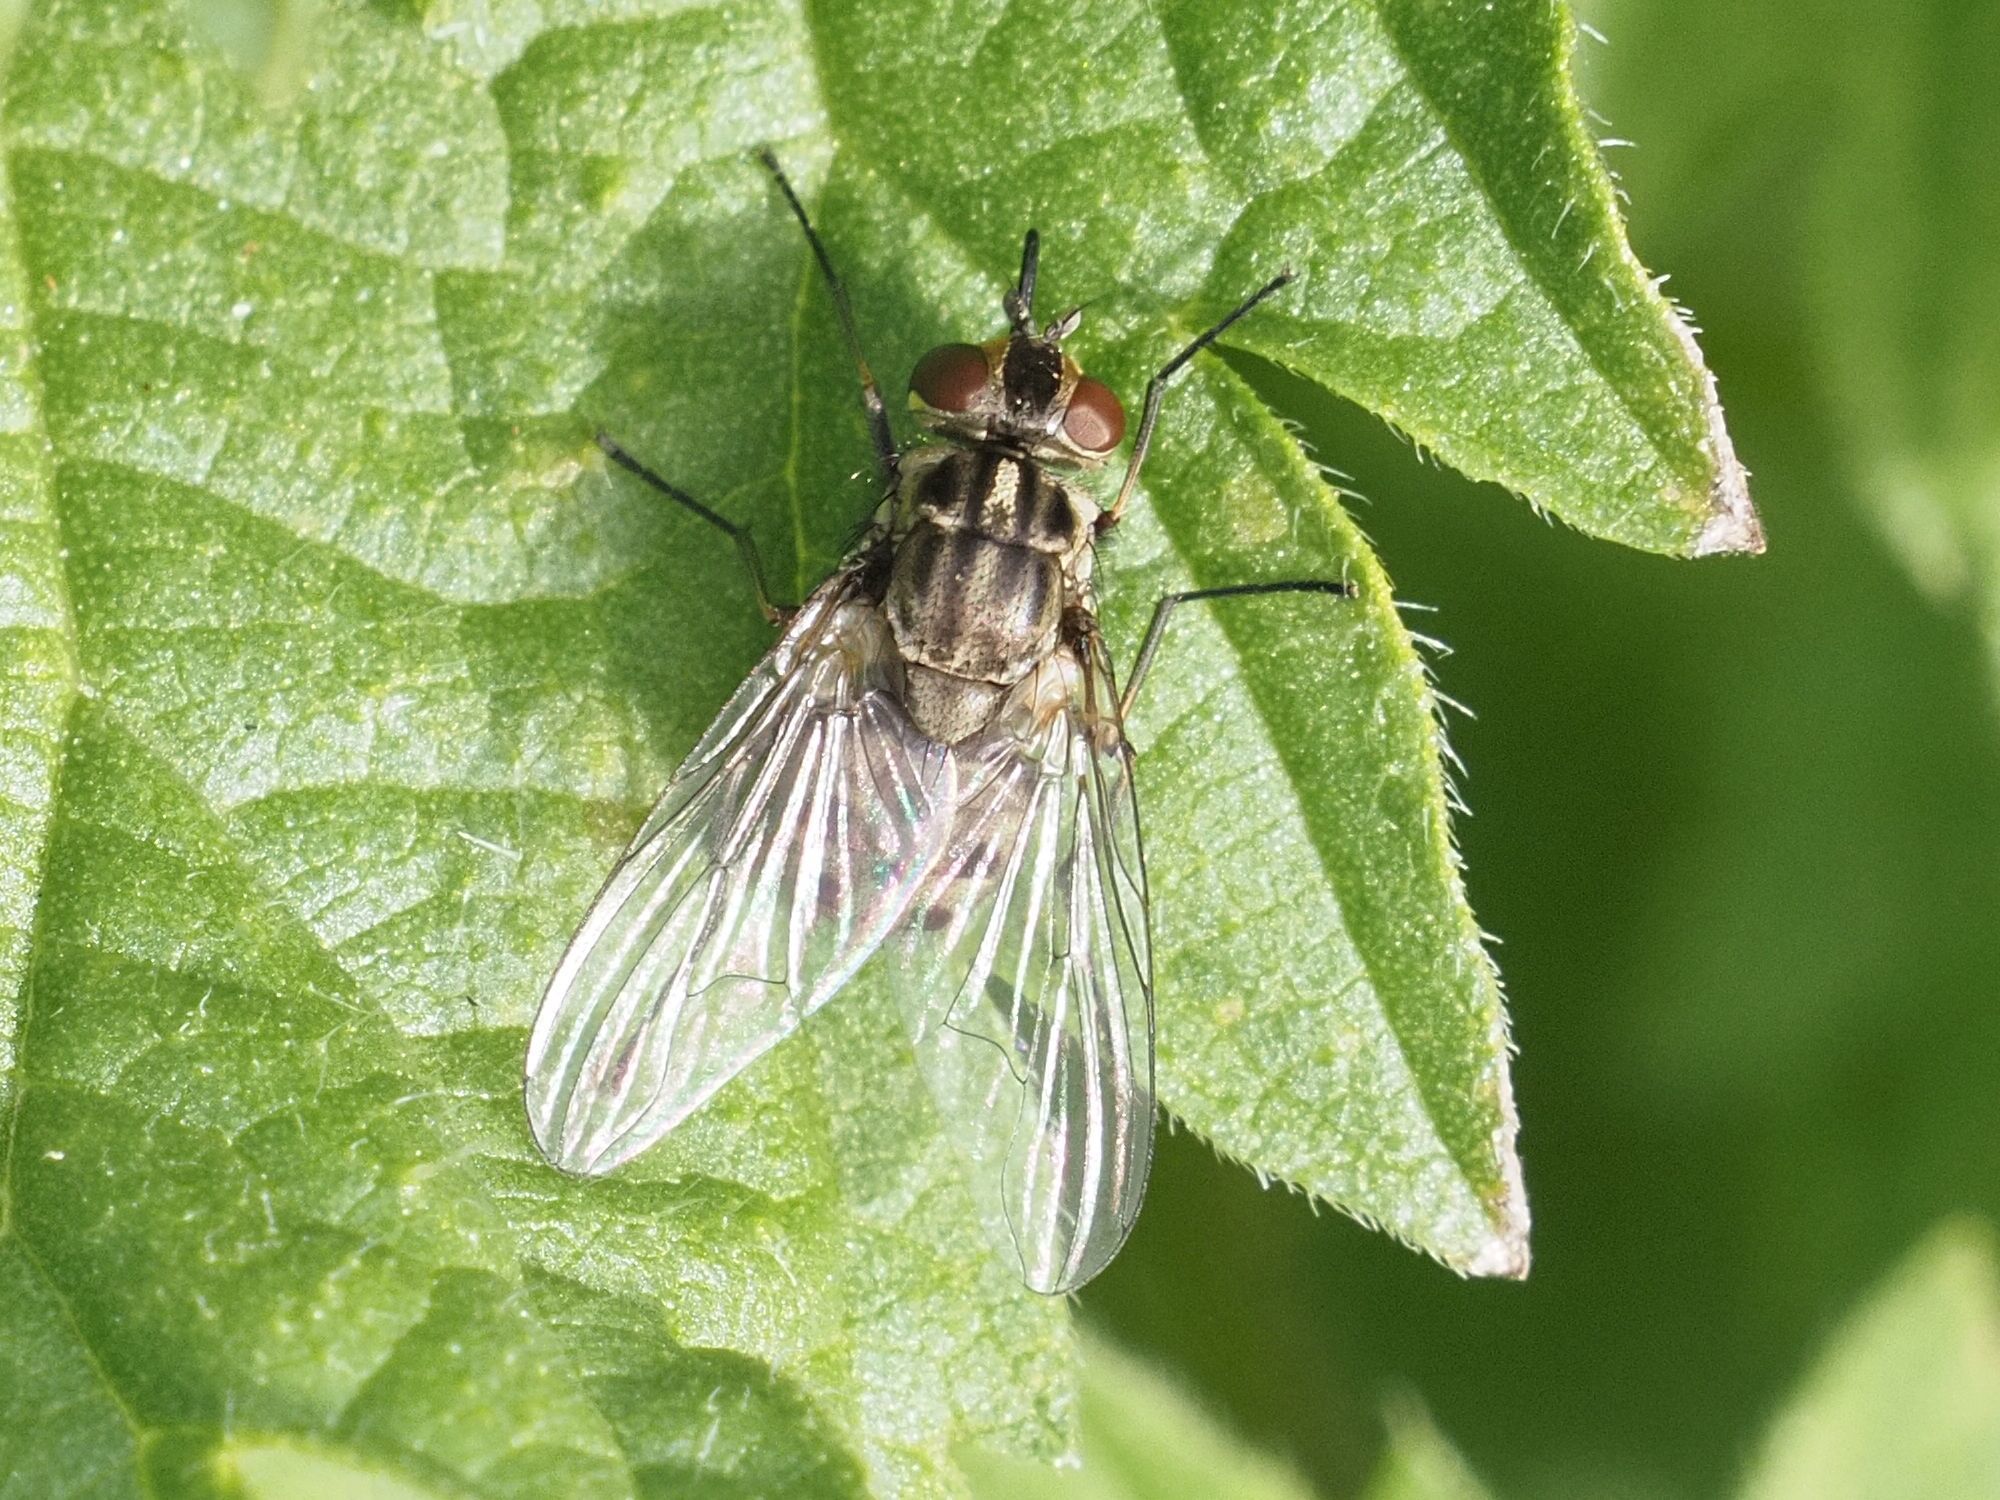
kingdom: Animalia
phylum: Arthropoda
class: Insecta
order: Diptera
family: Muscidae
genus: Stomoxys
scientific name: Stomoxys calcitrans
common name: Stable fly
